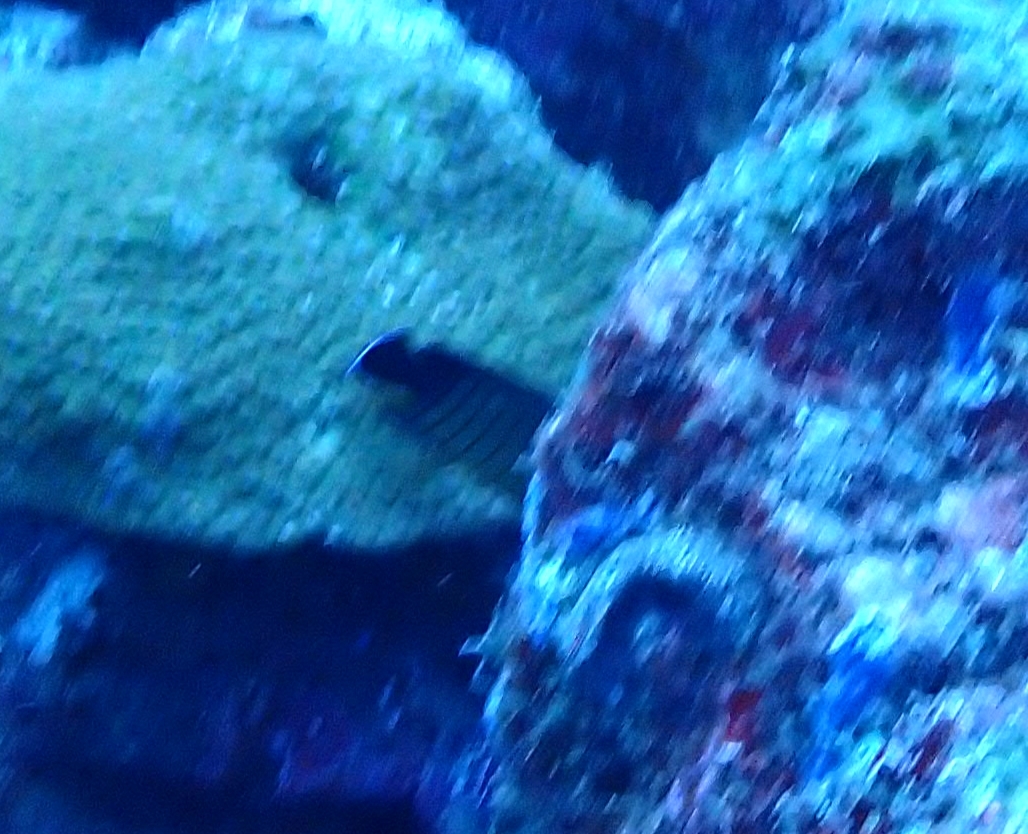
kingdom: Animalia
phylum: Chordata
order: Perciformes
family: Pomacanthidae
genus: Centropyge
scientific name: Centropyge eibli
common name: Eibl's angelfish
